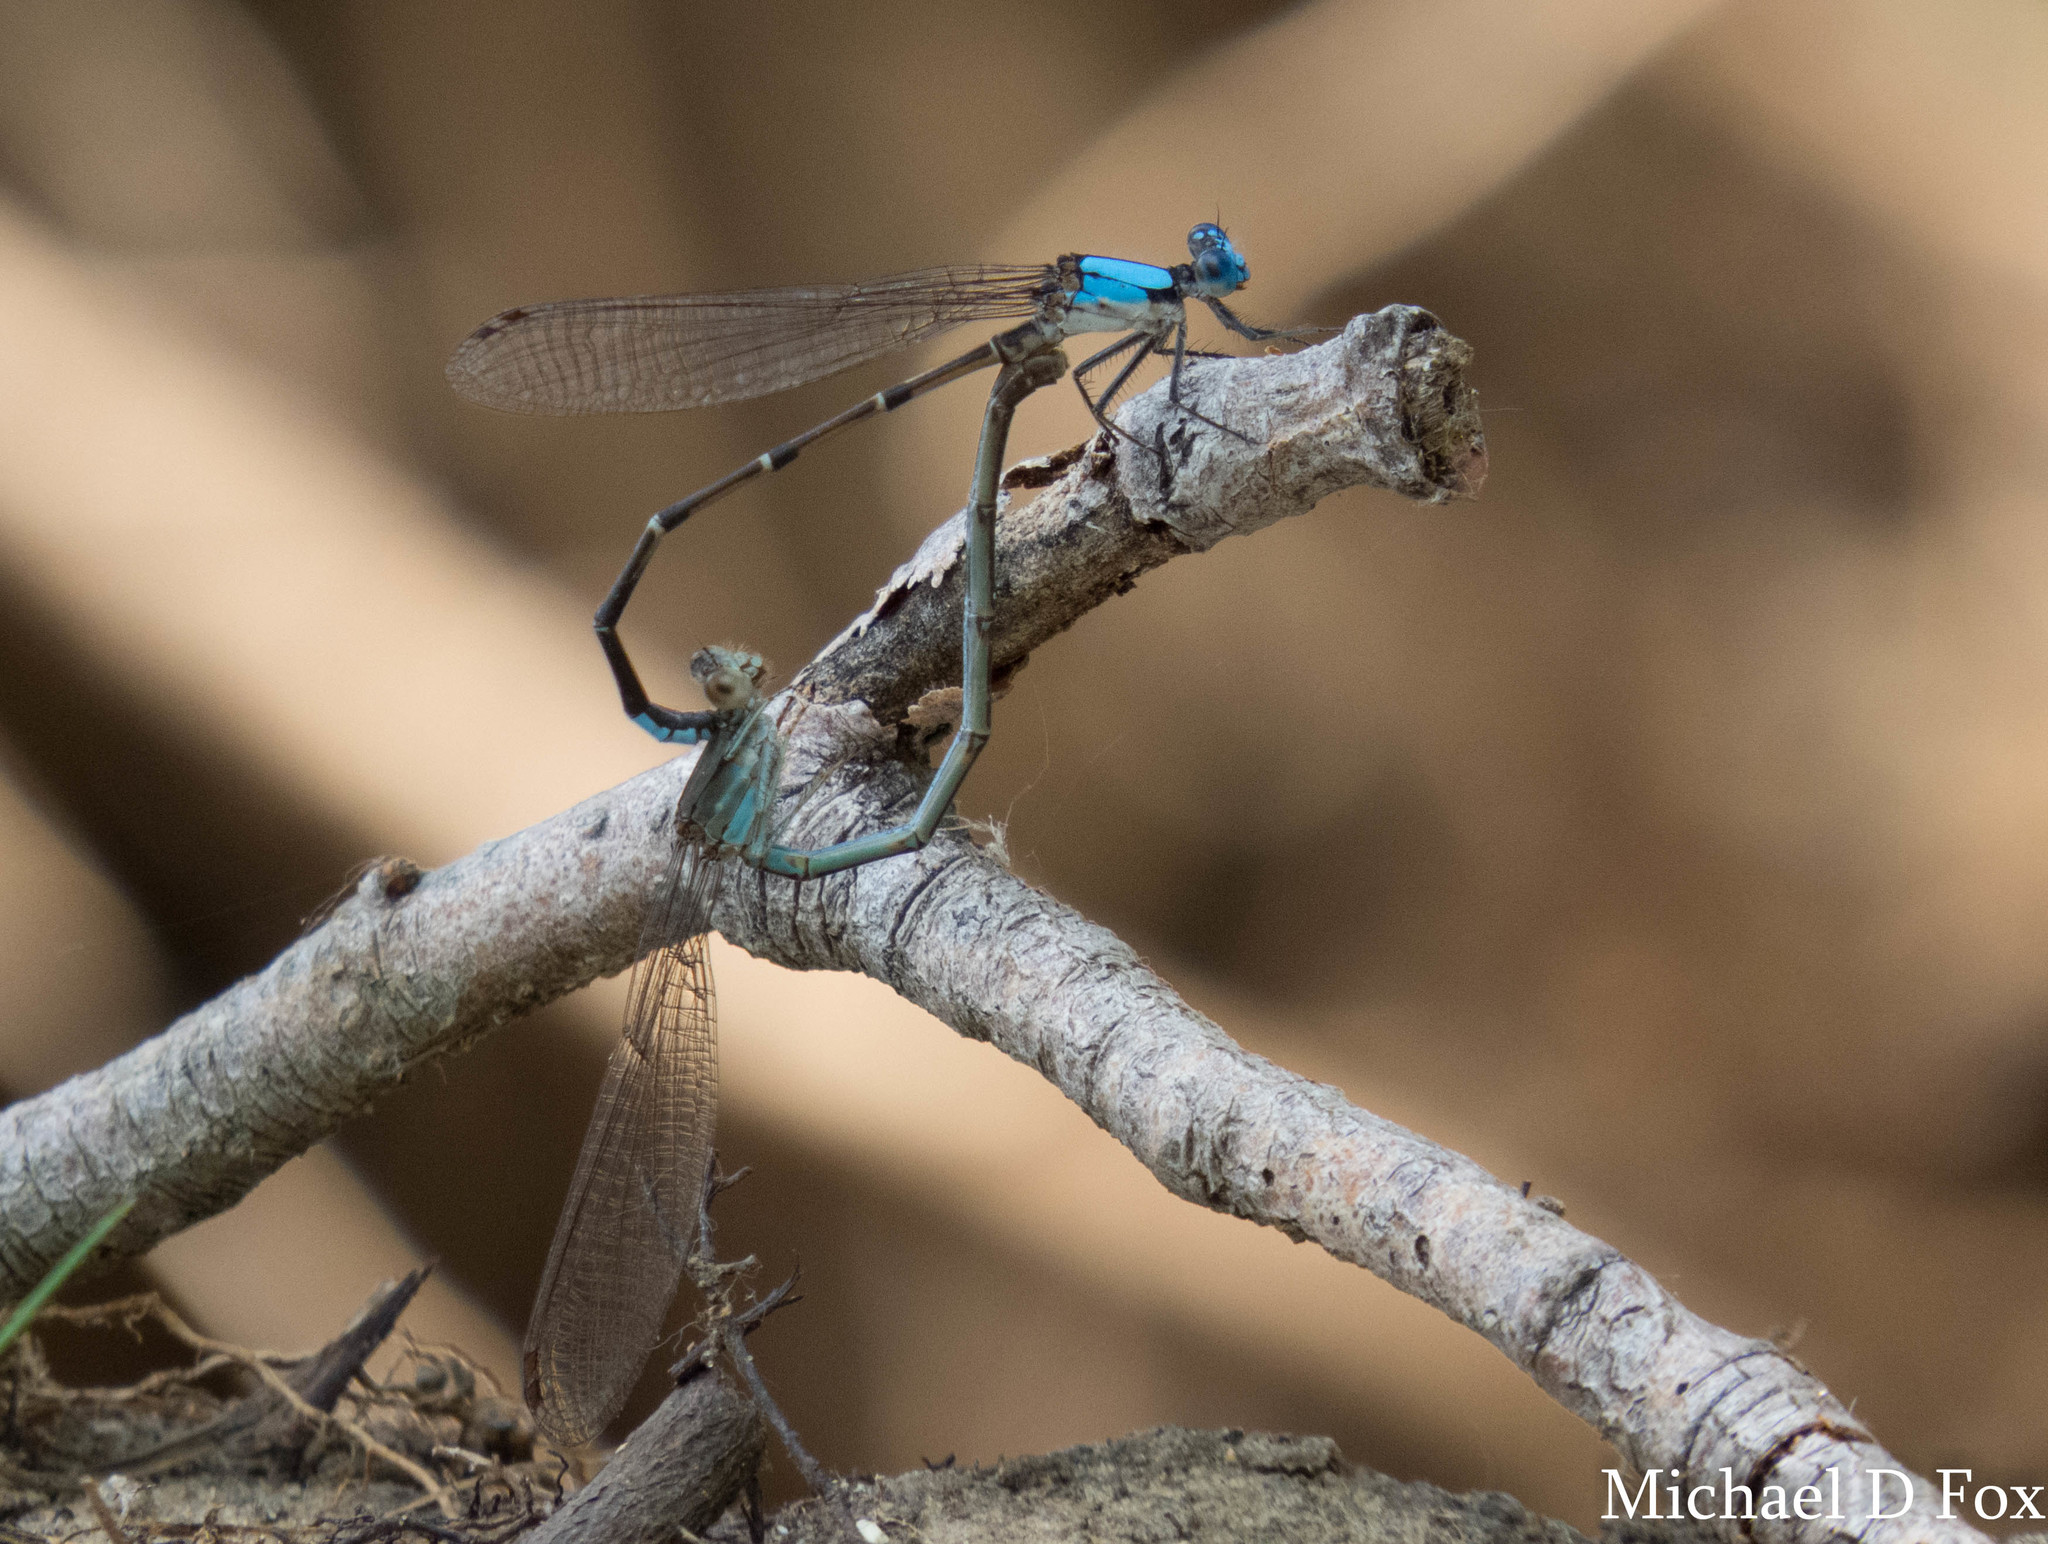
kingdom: Animalia
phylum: Arthropoda
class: Insecta
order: Odonata
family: Coenagrionidae
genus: Argia
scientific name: Argia apicalis
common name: Blue-fronted dancer
